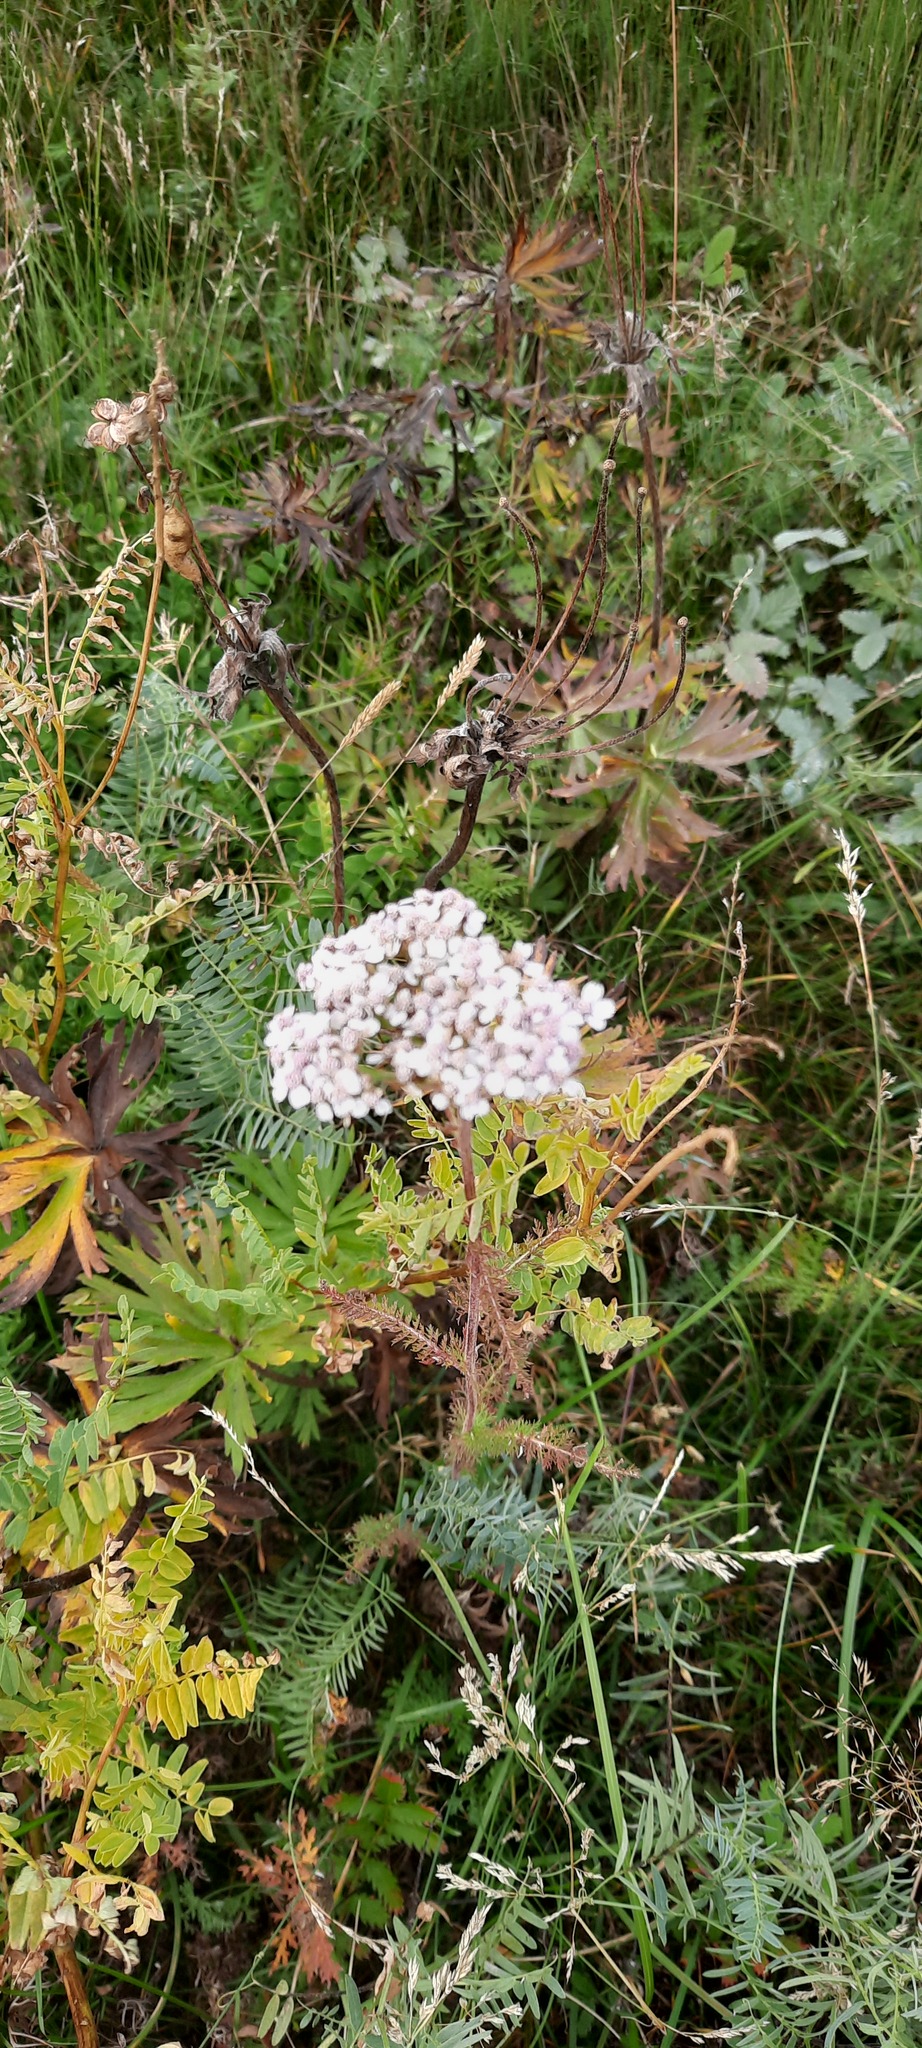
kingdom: Plantae
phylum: Tracheophyta
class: Magnoliopsida
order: Asterales
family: Asteraceae
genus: Achillea
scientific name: Achillea asiatica
